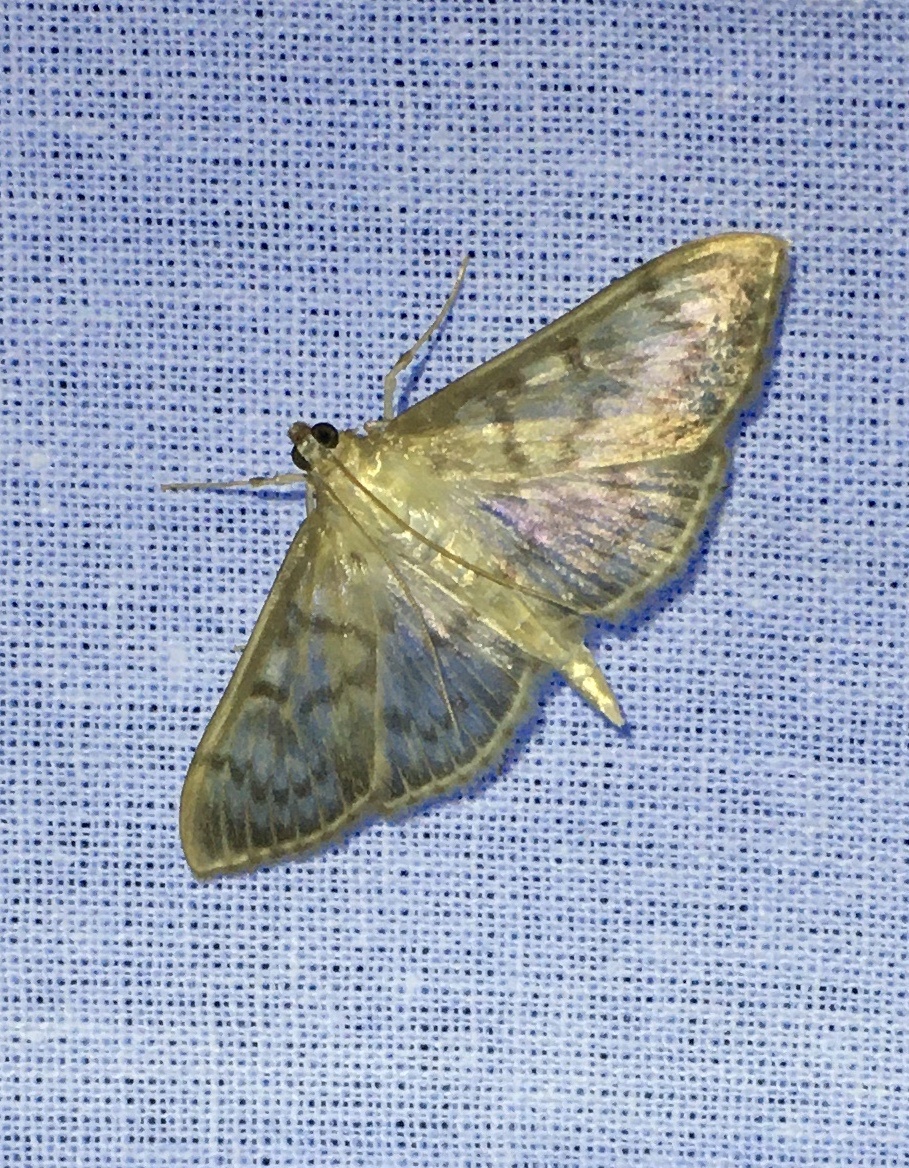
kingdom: Animalia
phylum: Arthropoda
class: Insecta
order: Lepidoptera
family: Crambidae
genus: Patania
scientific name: Patania ruralis
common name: Mother of pearl
